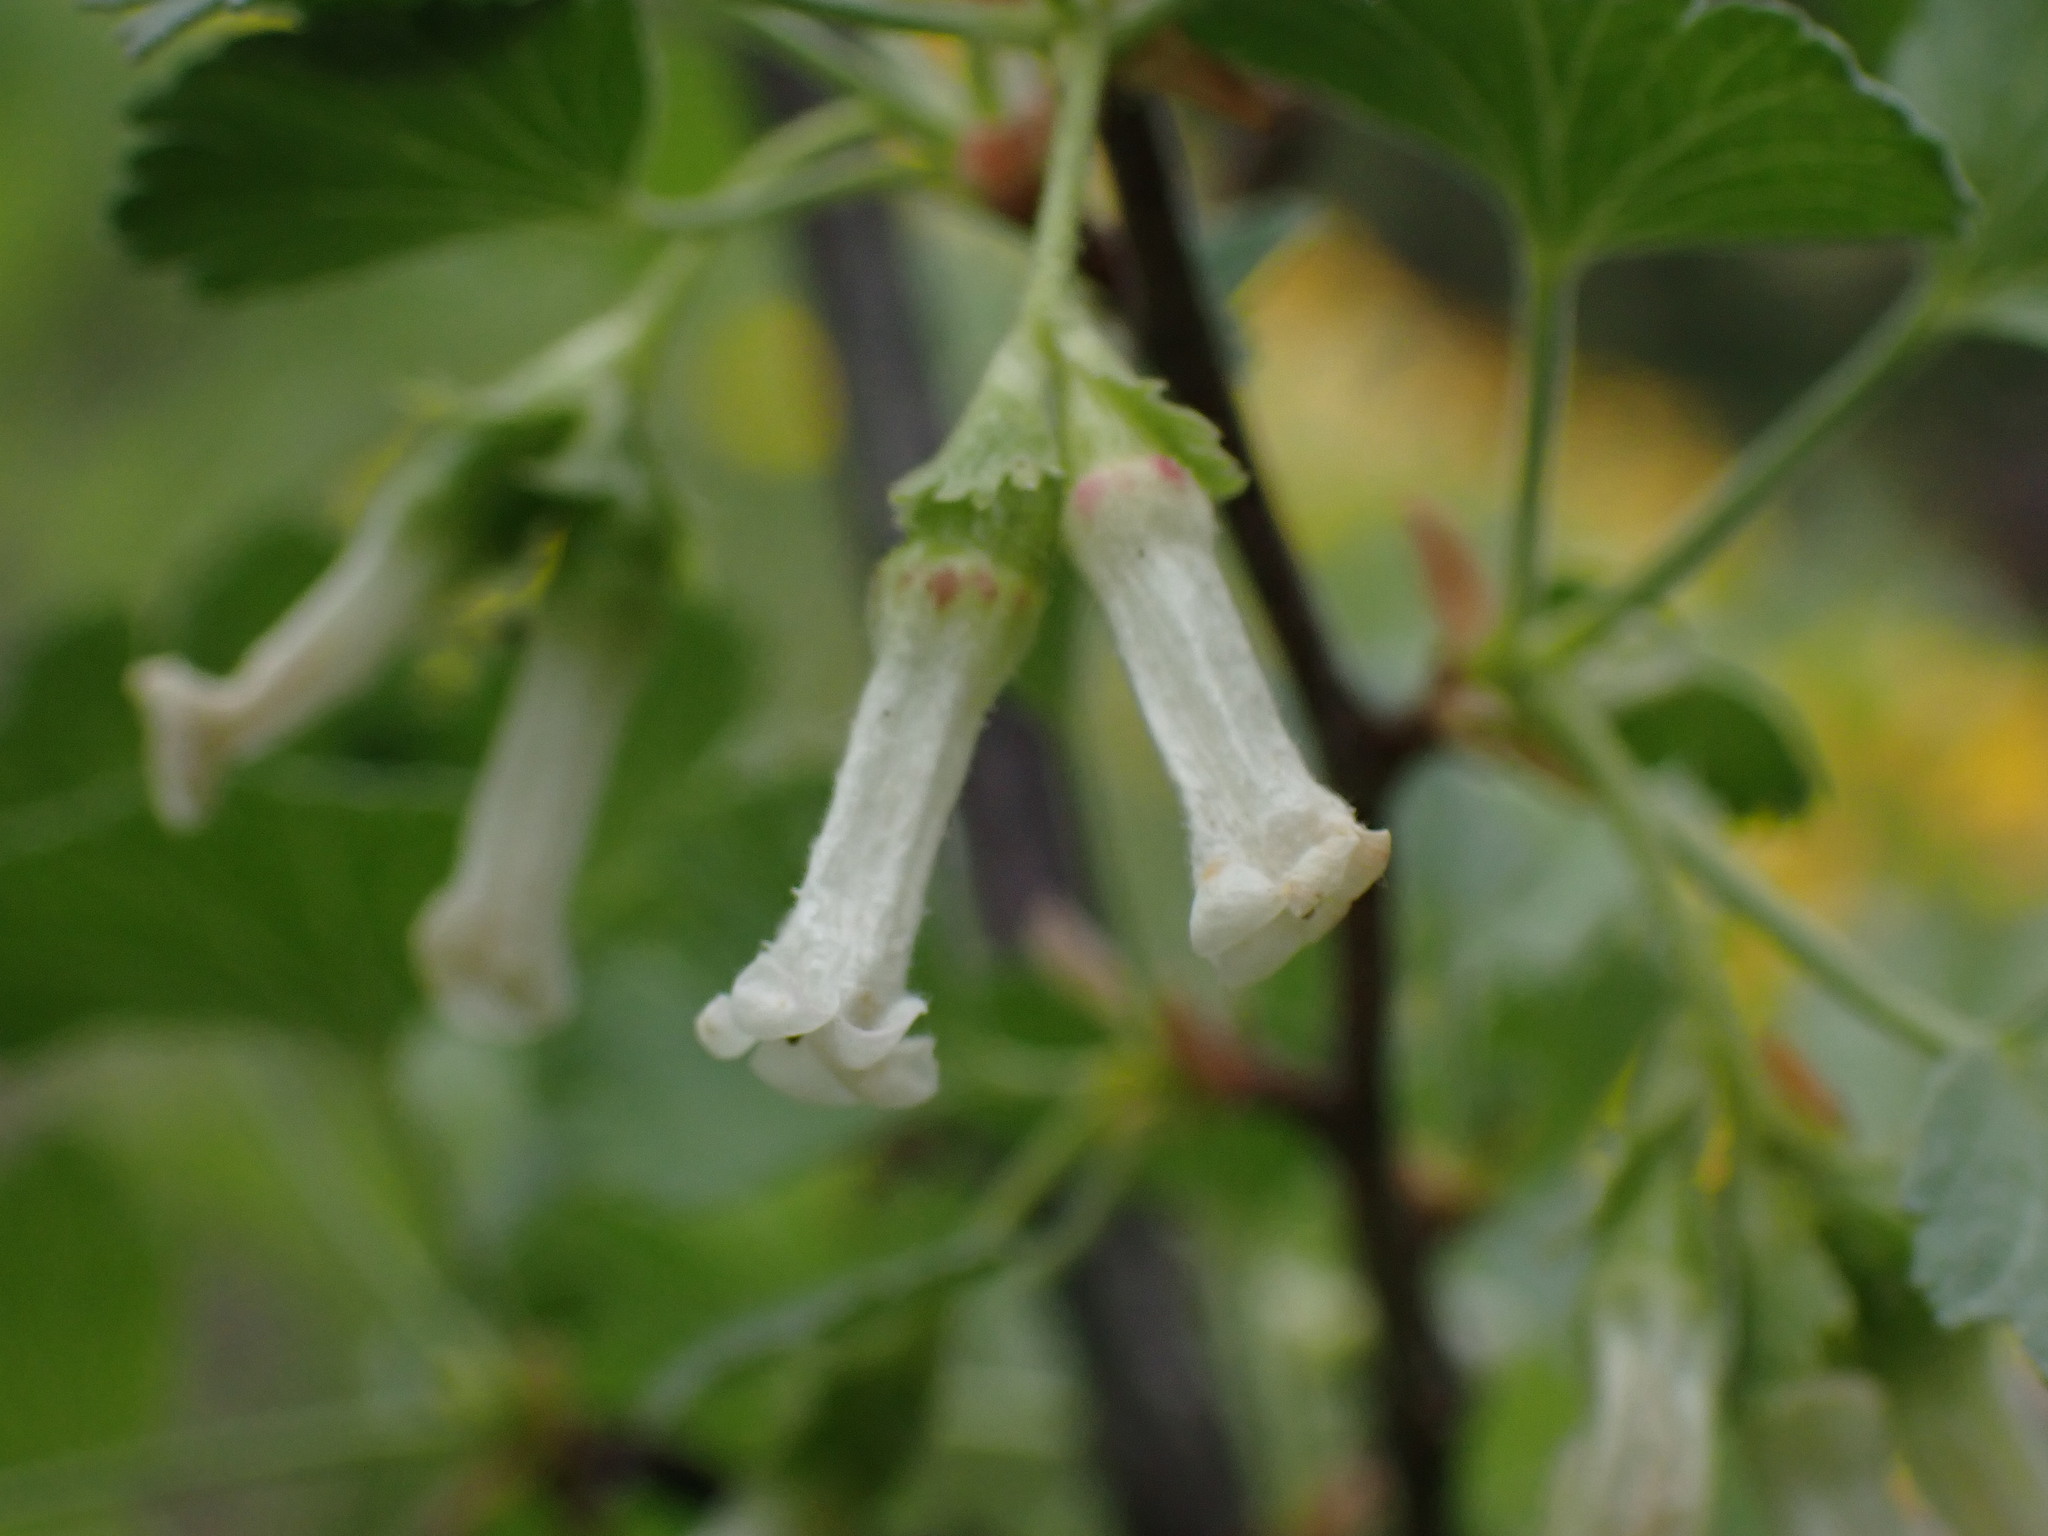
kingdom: Plantae
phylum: Tracheophyta
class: Magnoliopsida
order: Saxifragales
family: Grossulariaceae
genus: Ribes
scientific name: Ribes cereum
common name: Wax currant
